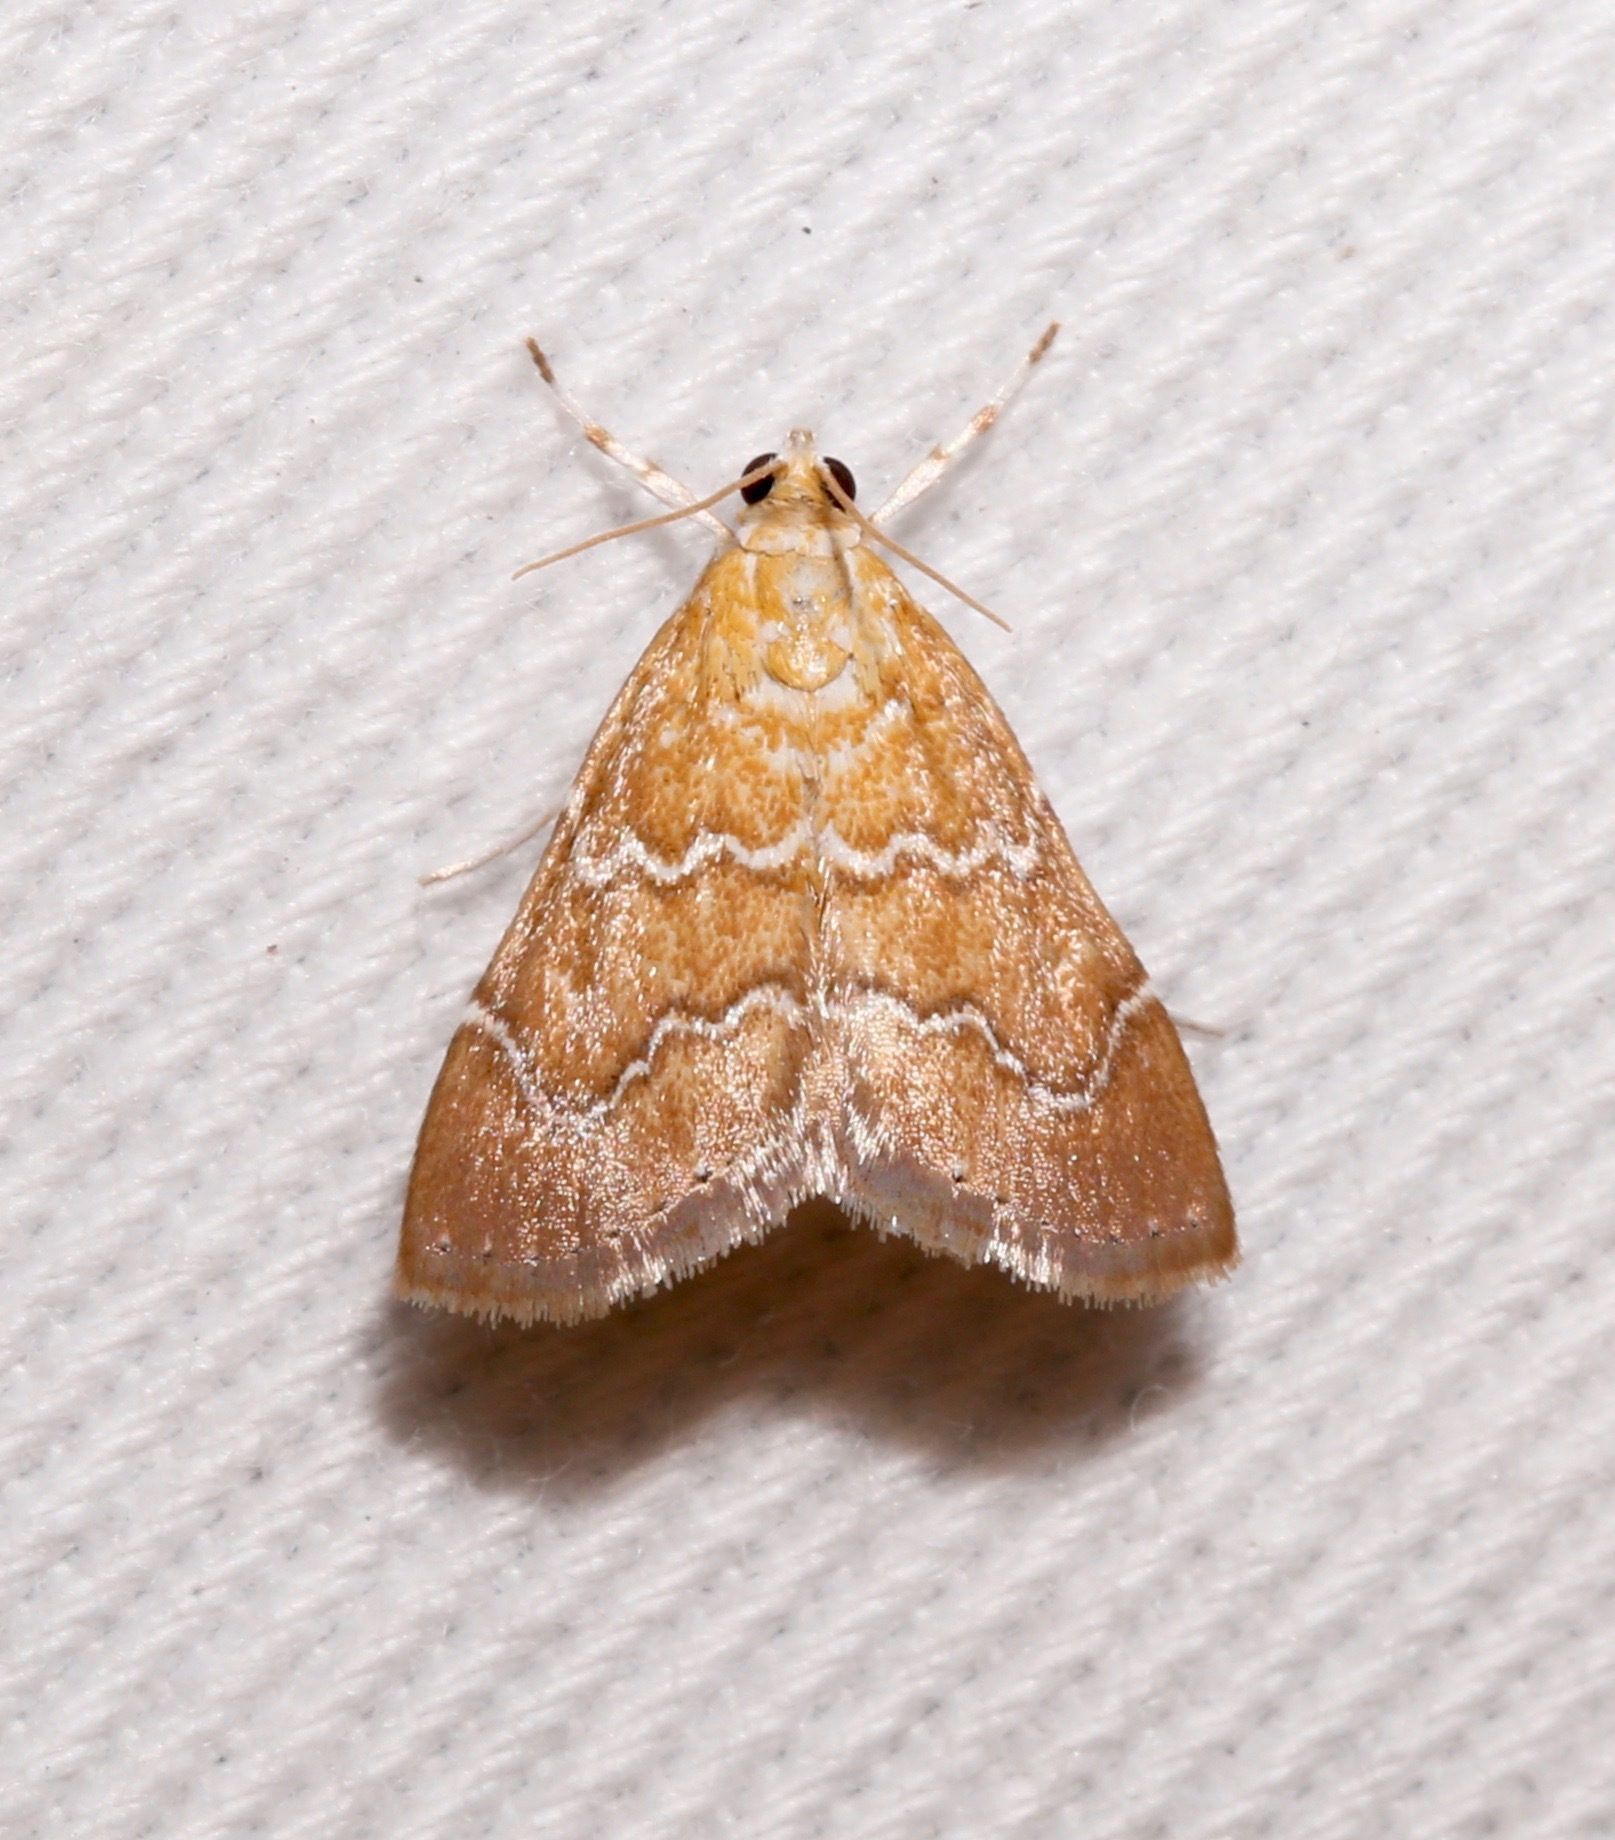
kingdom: Animalia
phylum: Arthropoda
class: Insecta
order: Lepidoptera
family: Crambidae
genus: Glaphyria
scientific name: Glaphyria sesquistrialis
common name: White-roped glaphyria
